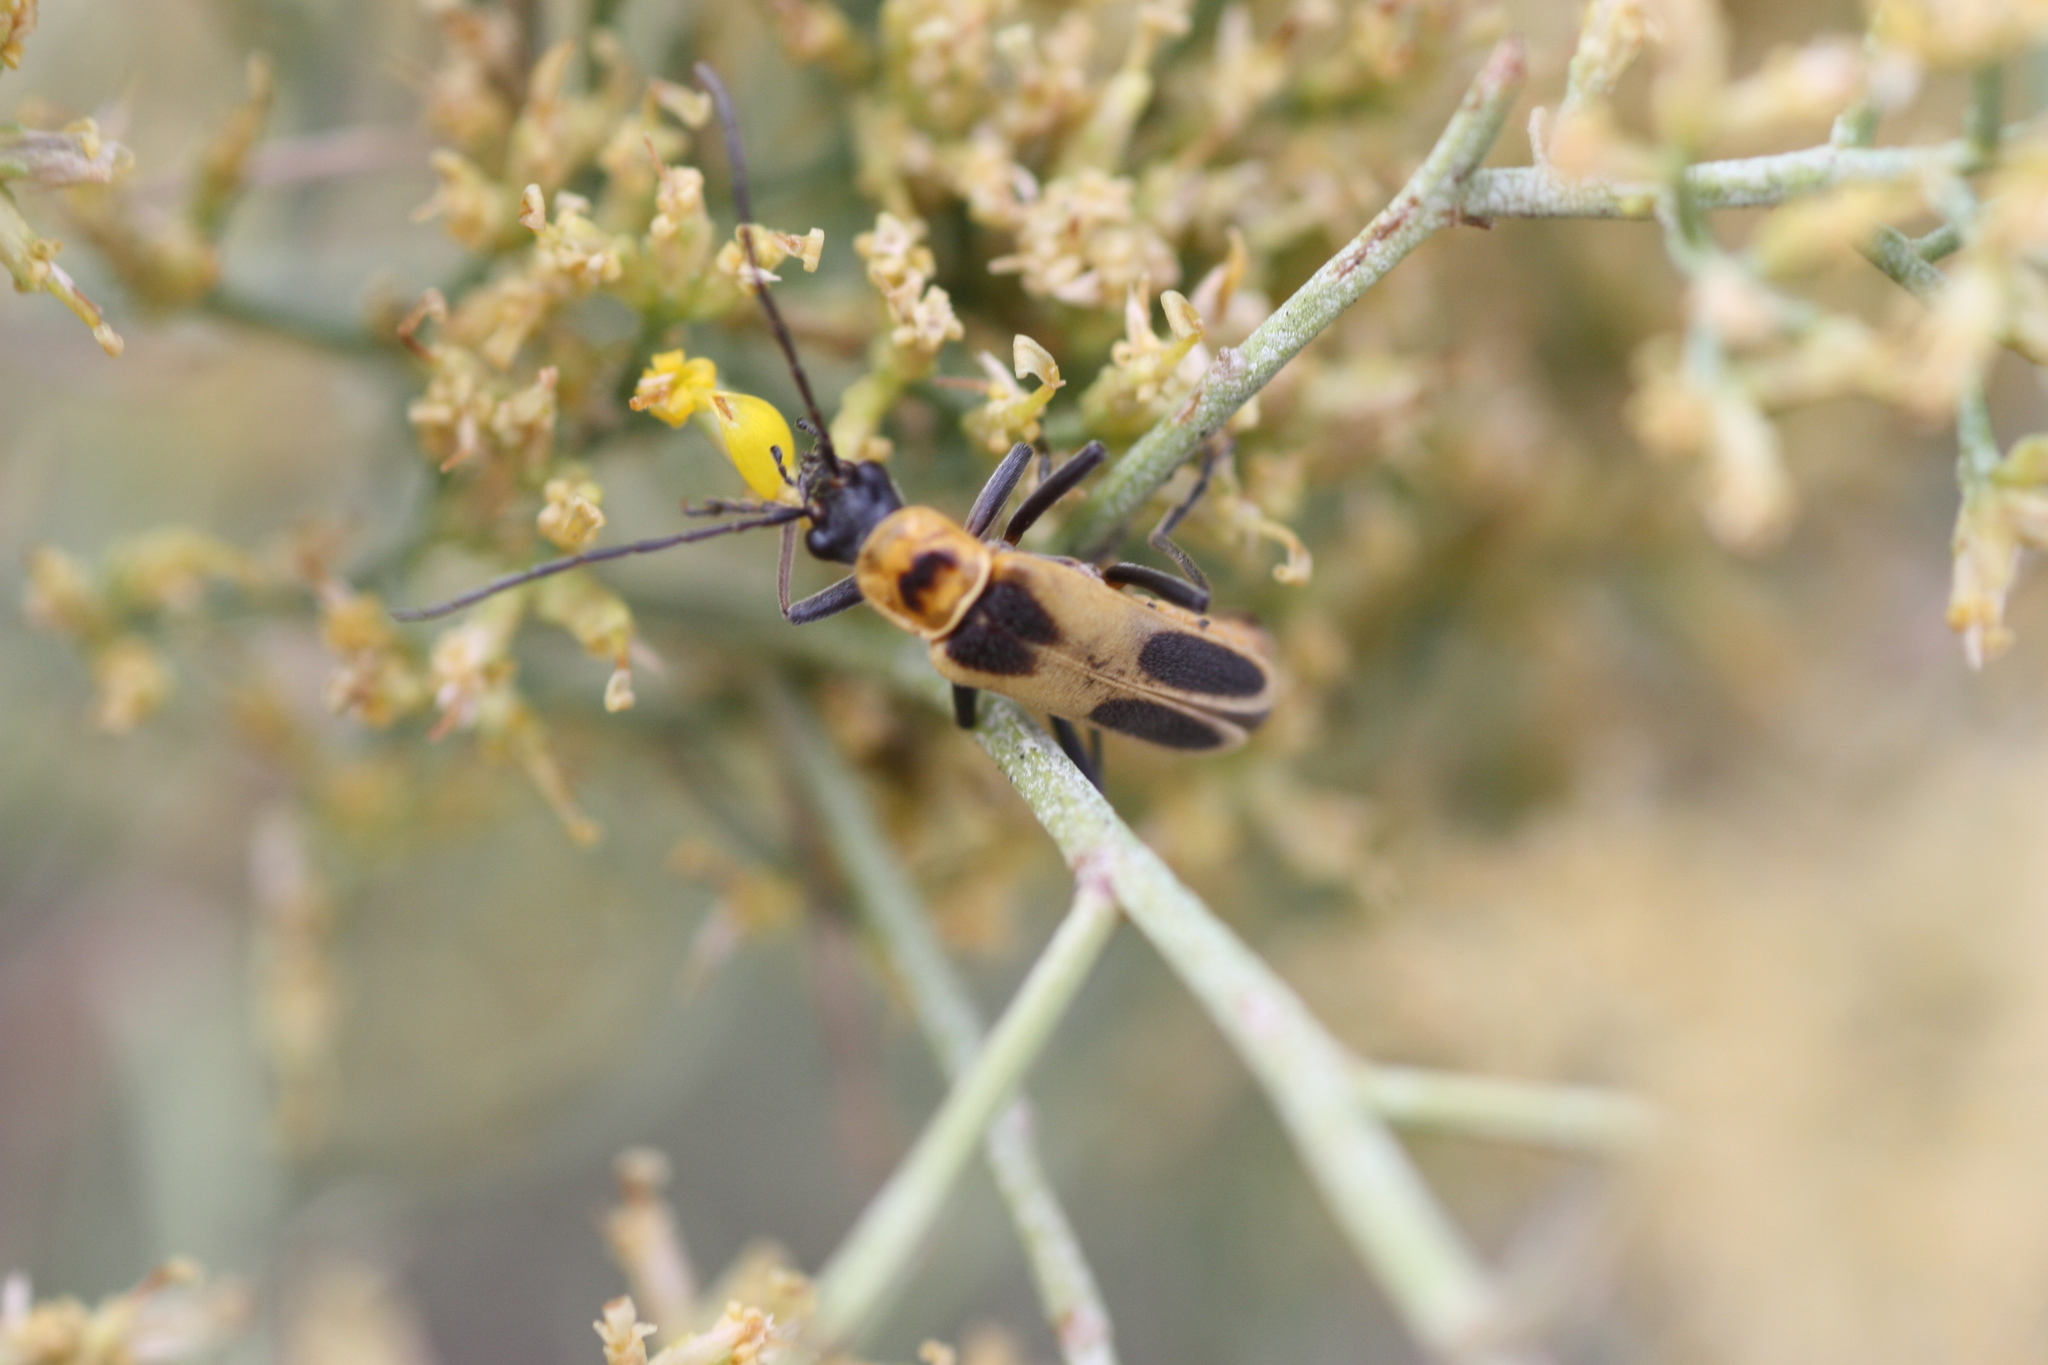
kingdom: Animalia
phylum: Arthropoda
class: Insecta
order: Coleoptera
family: Cantharidae
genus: Chauliognathus
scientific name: Chauliognathus omissus
